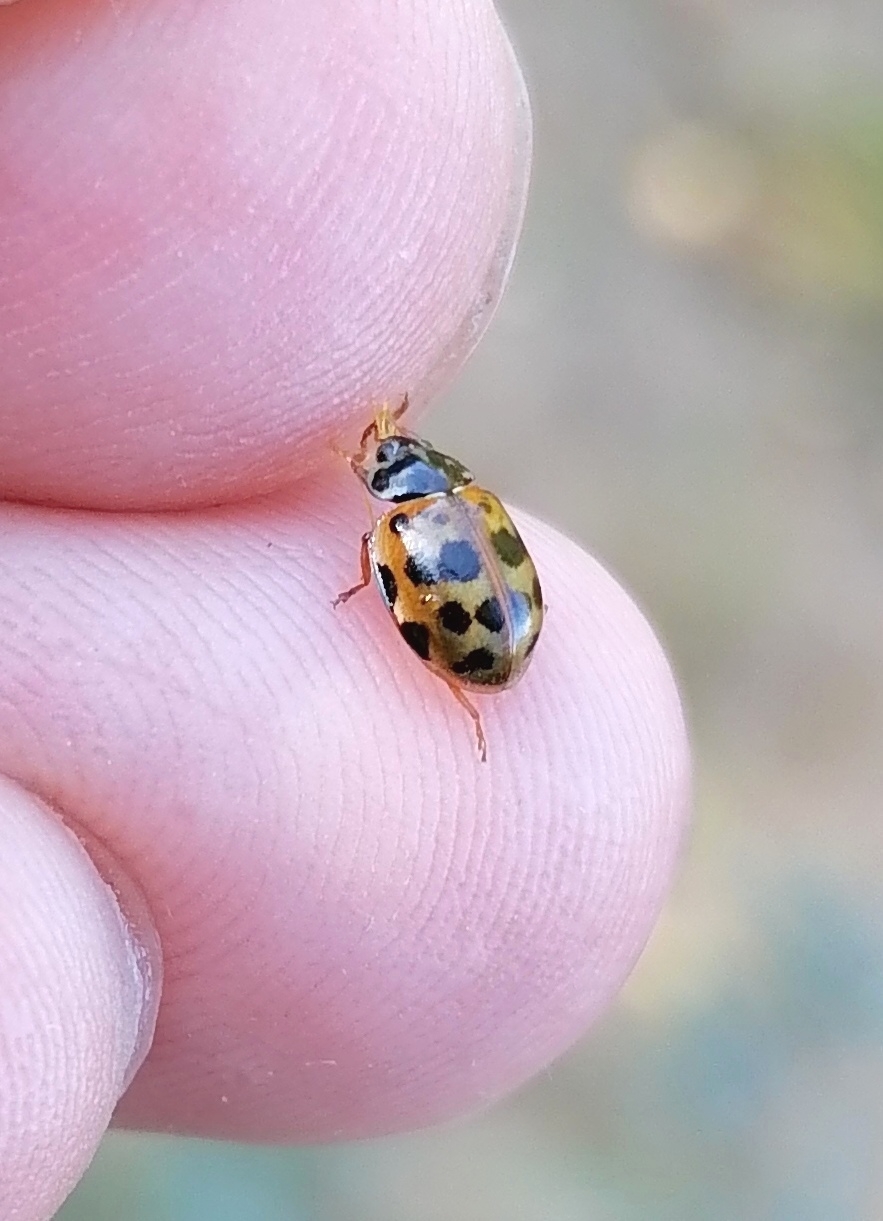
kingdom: Animalia
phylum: Arthropoda
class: Insecta
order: Coleoptera
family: Coccinellidae
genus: Harmonia
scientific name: Harmonia quadripunctata
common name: Cream-streaked ladybird
